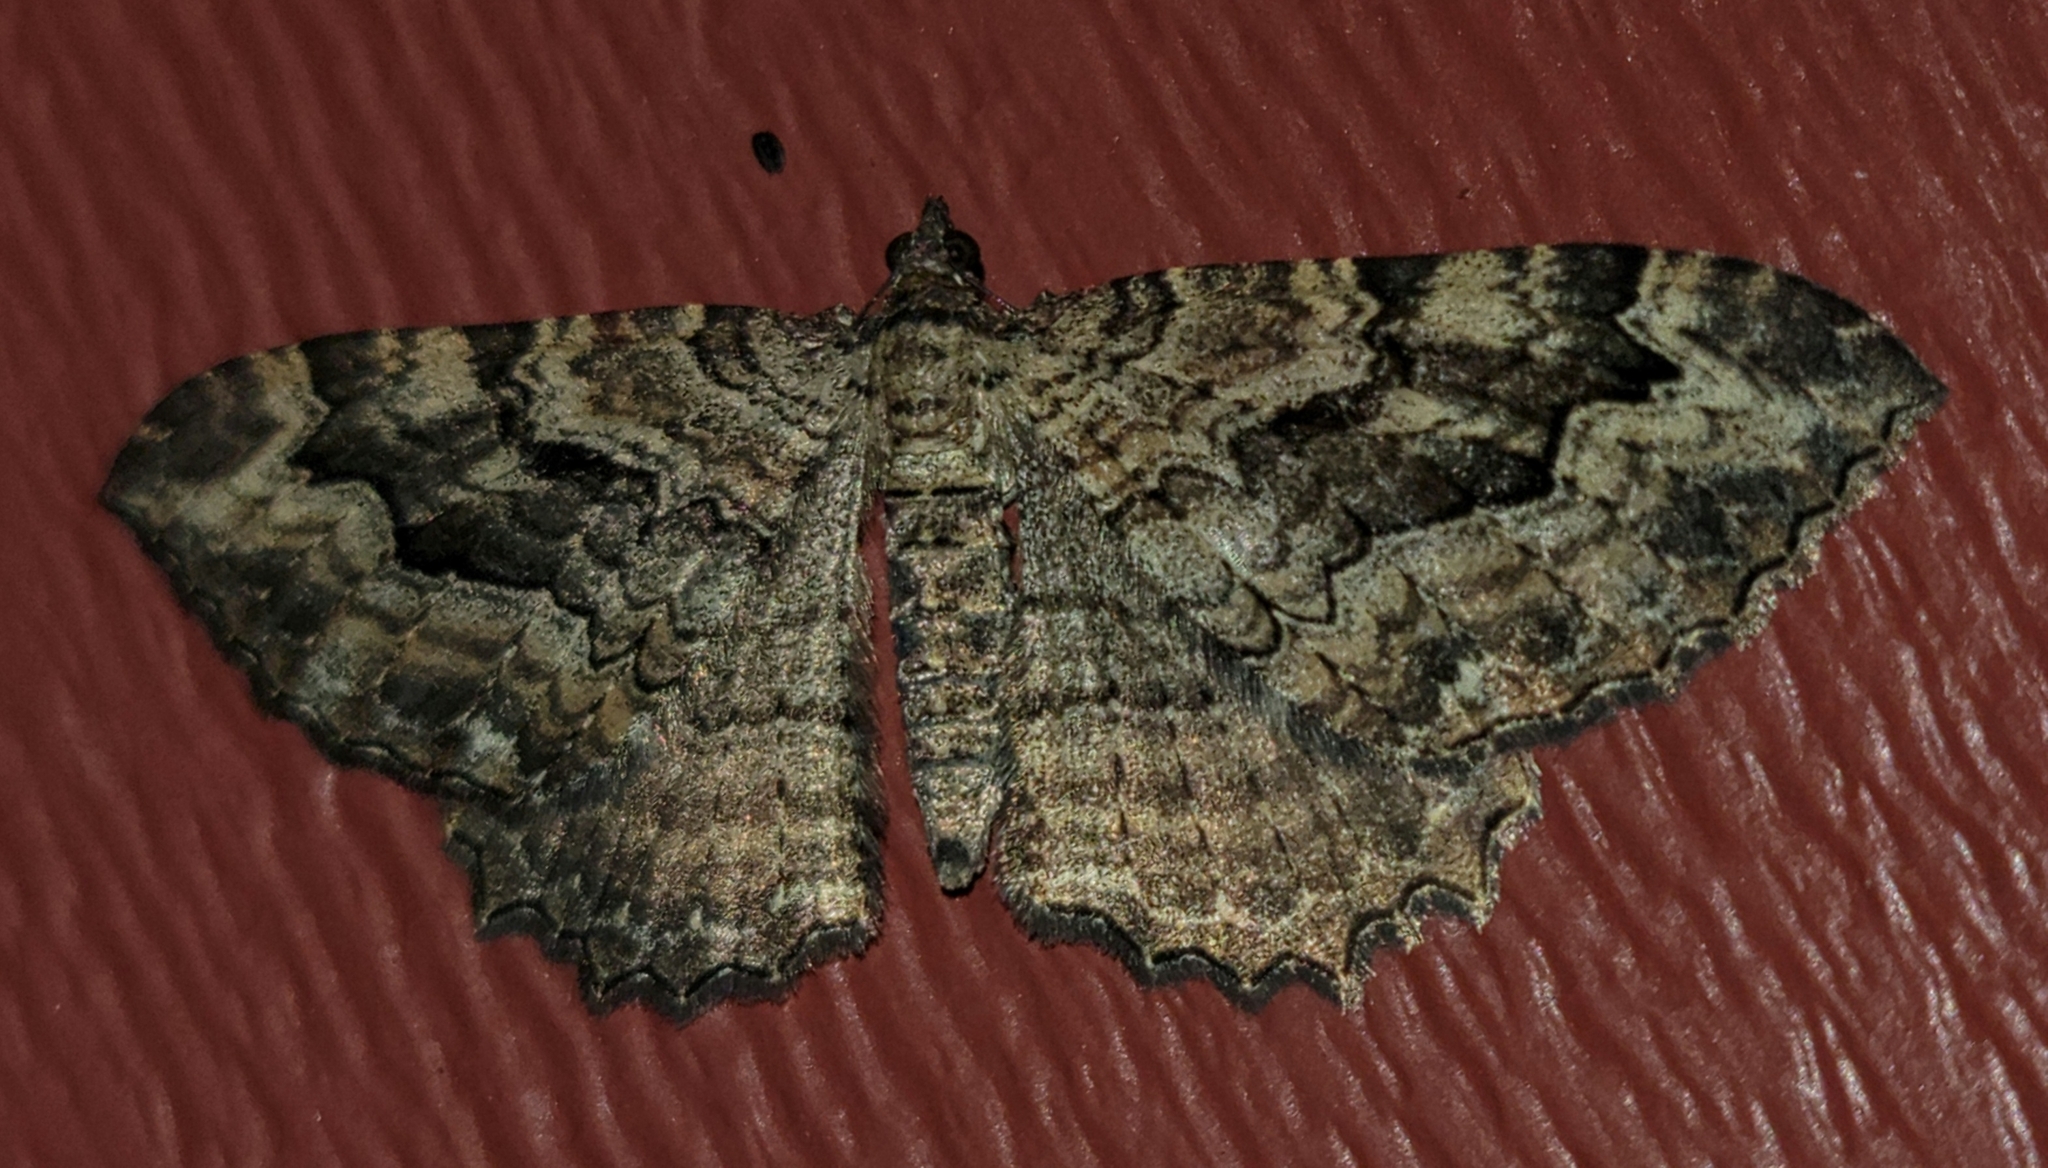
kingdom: Animalia
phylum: Arthropoda
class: Insecta
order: Lepidoptera
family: Geometridae
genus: Rheumaptera
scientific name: Rheumaptera
